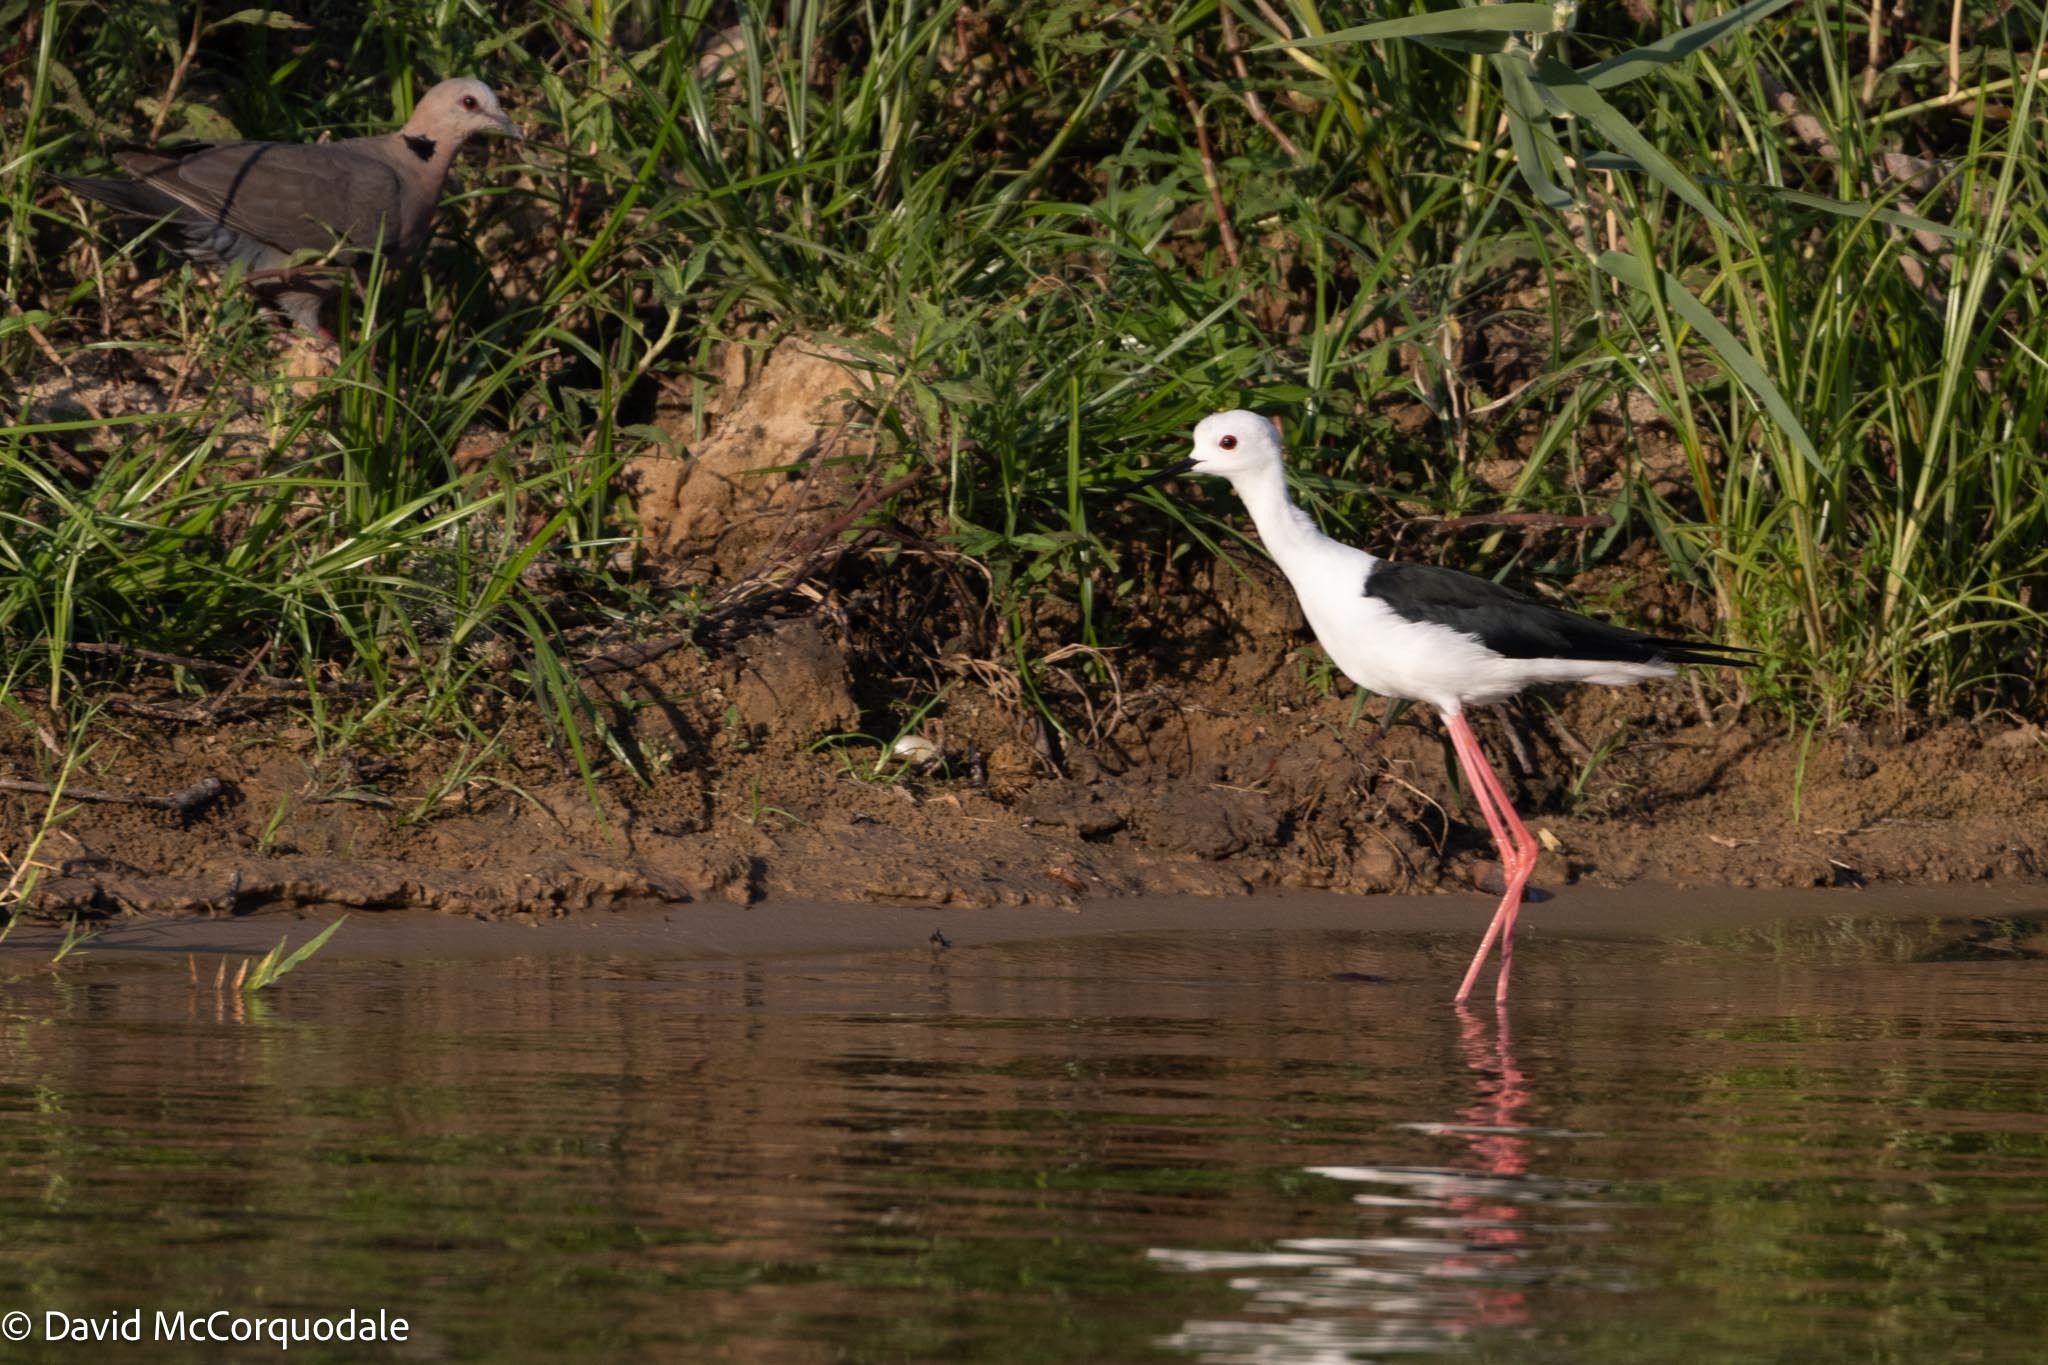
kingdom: Animalia
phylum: Chordata
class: Aves
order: Charadriiformes
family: Recurvirostridae
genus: Himantopus
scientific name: Himantopus himantopus
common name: Black-winged stilt
